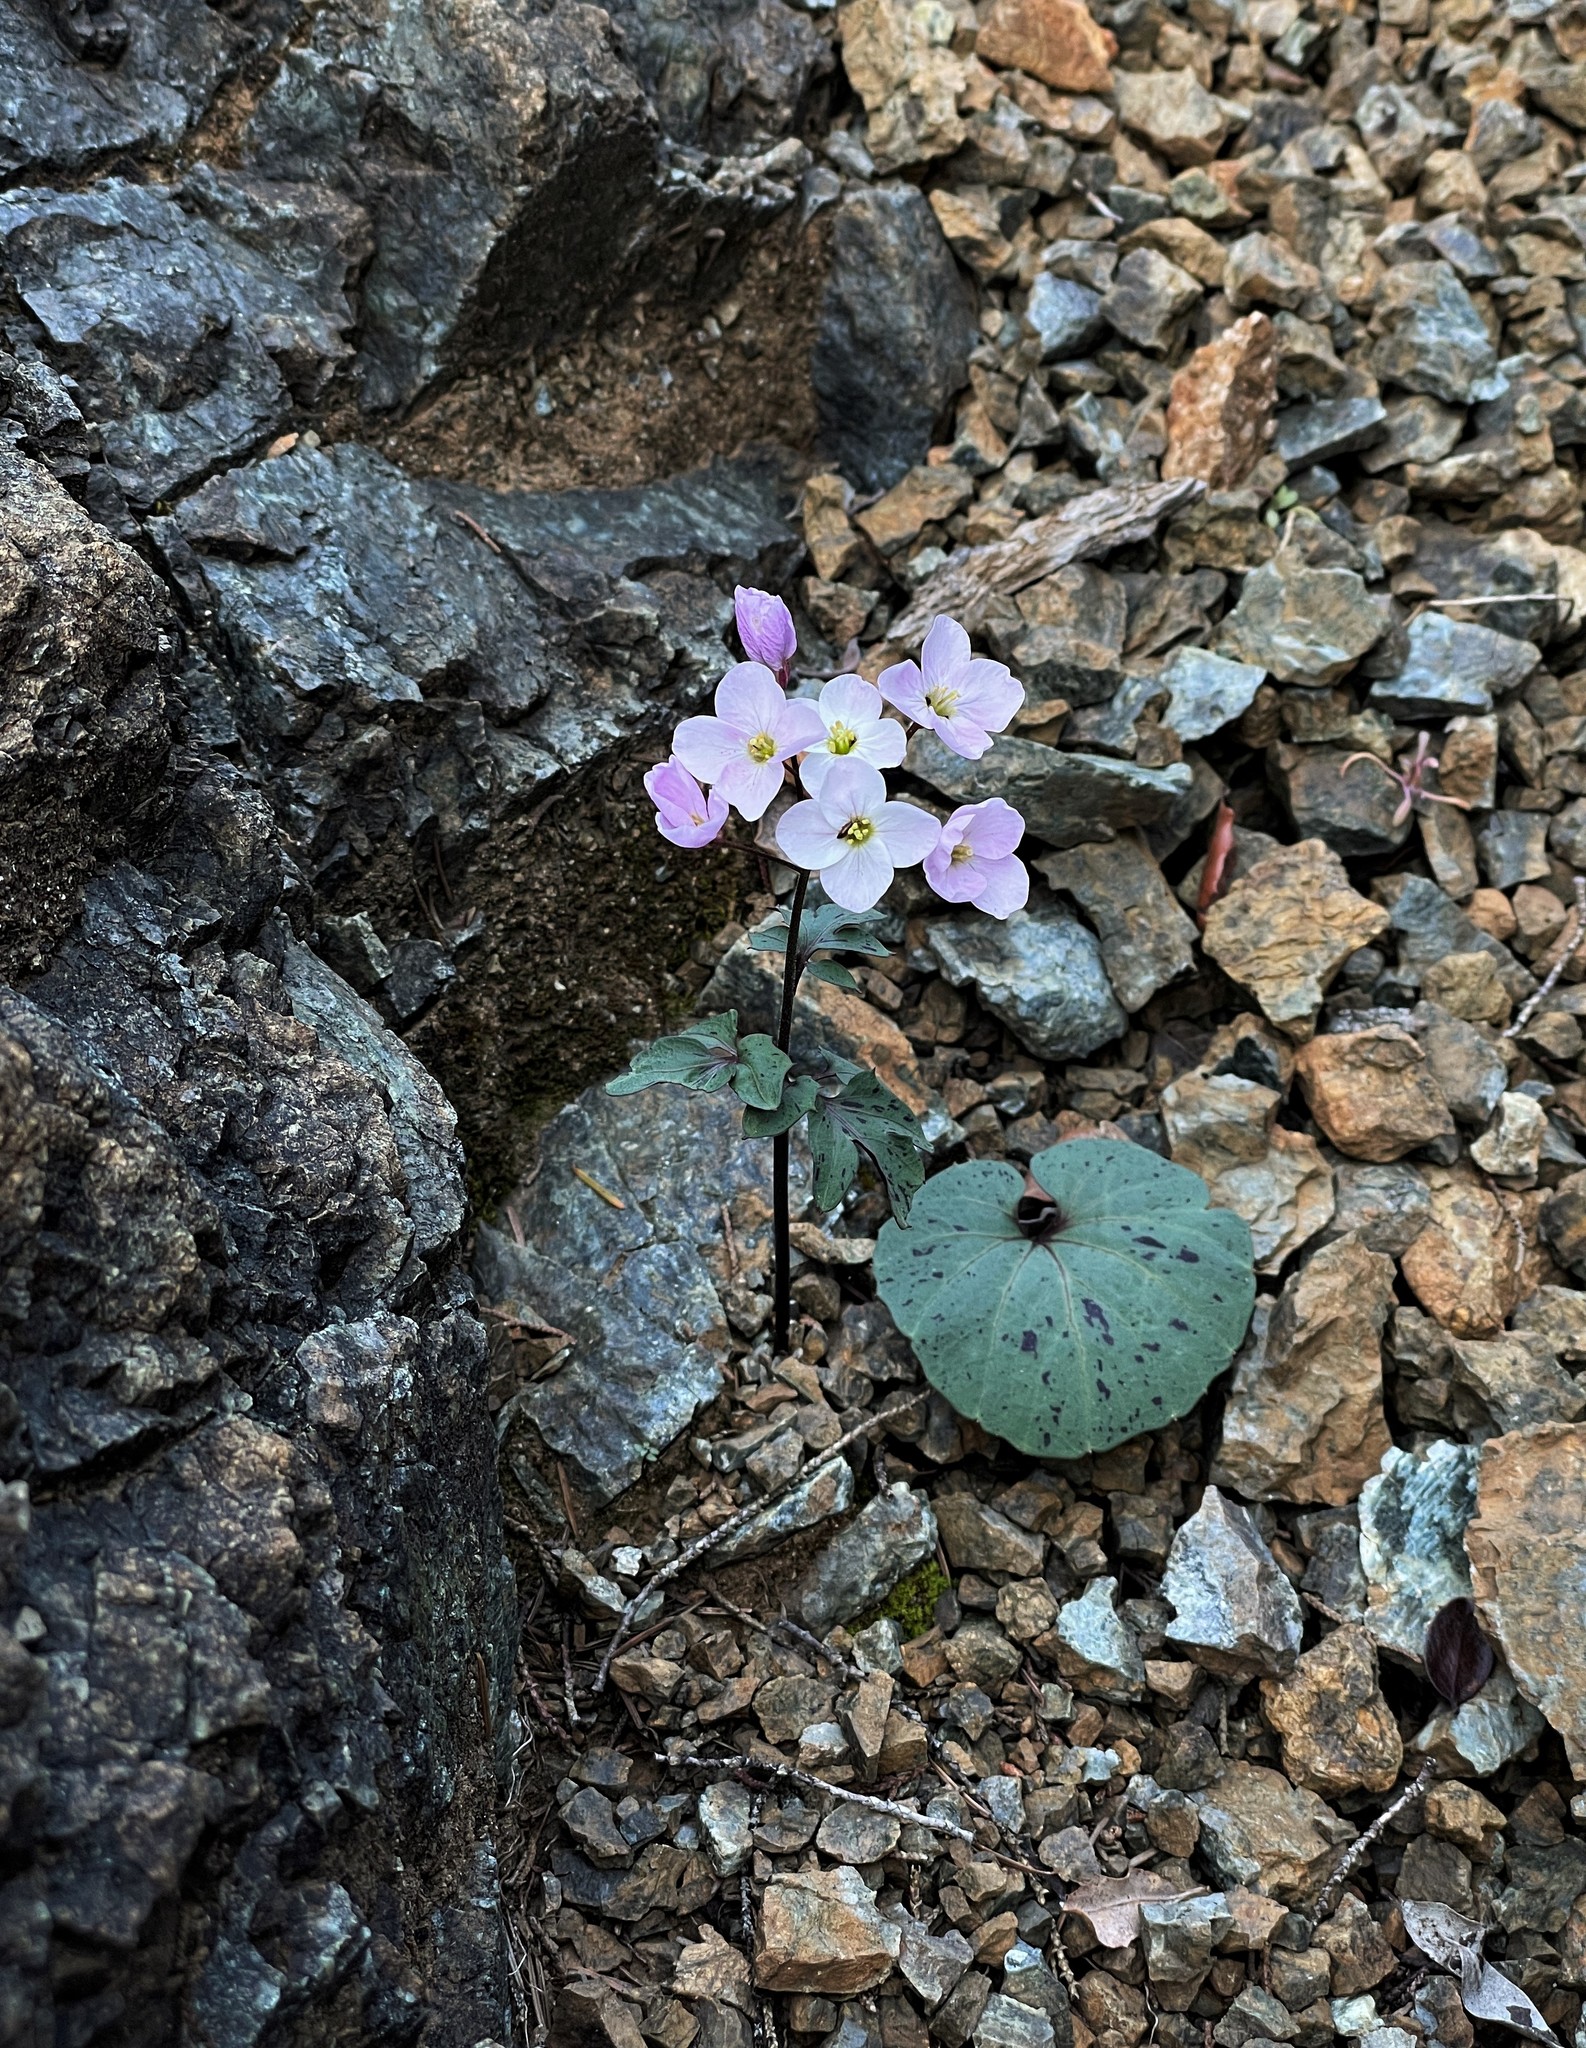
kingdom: Plantae
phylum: Tracheophyta
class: Magnoliopsida
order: Brassicales
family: Brassicaceae
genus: Cardamine
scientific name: Cardamine californica
